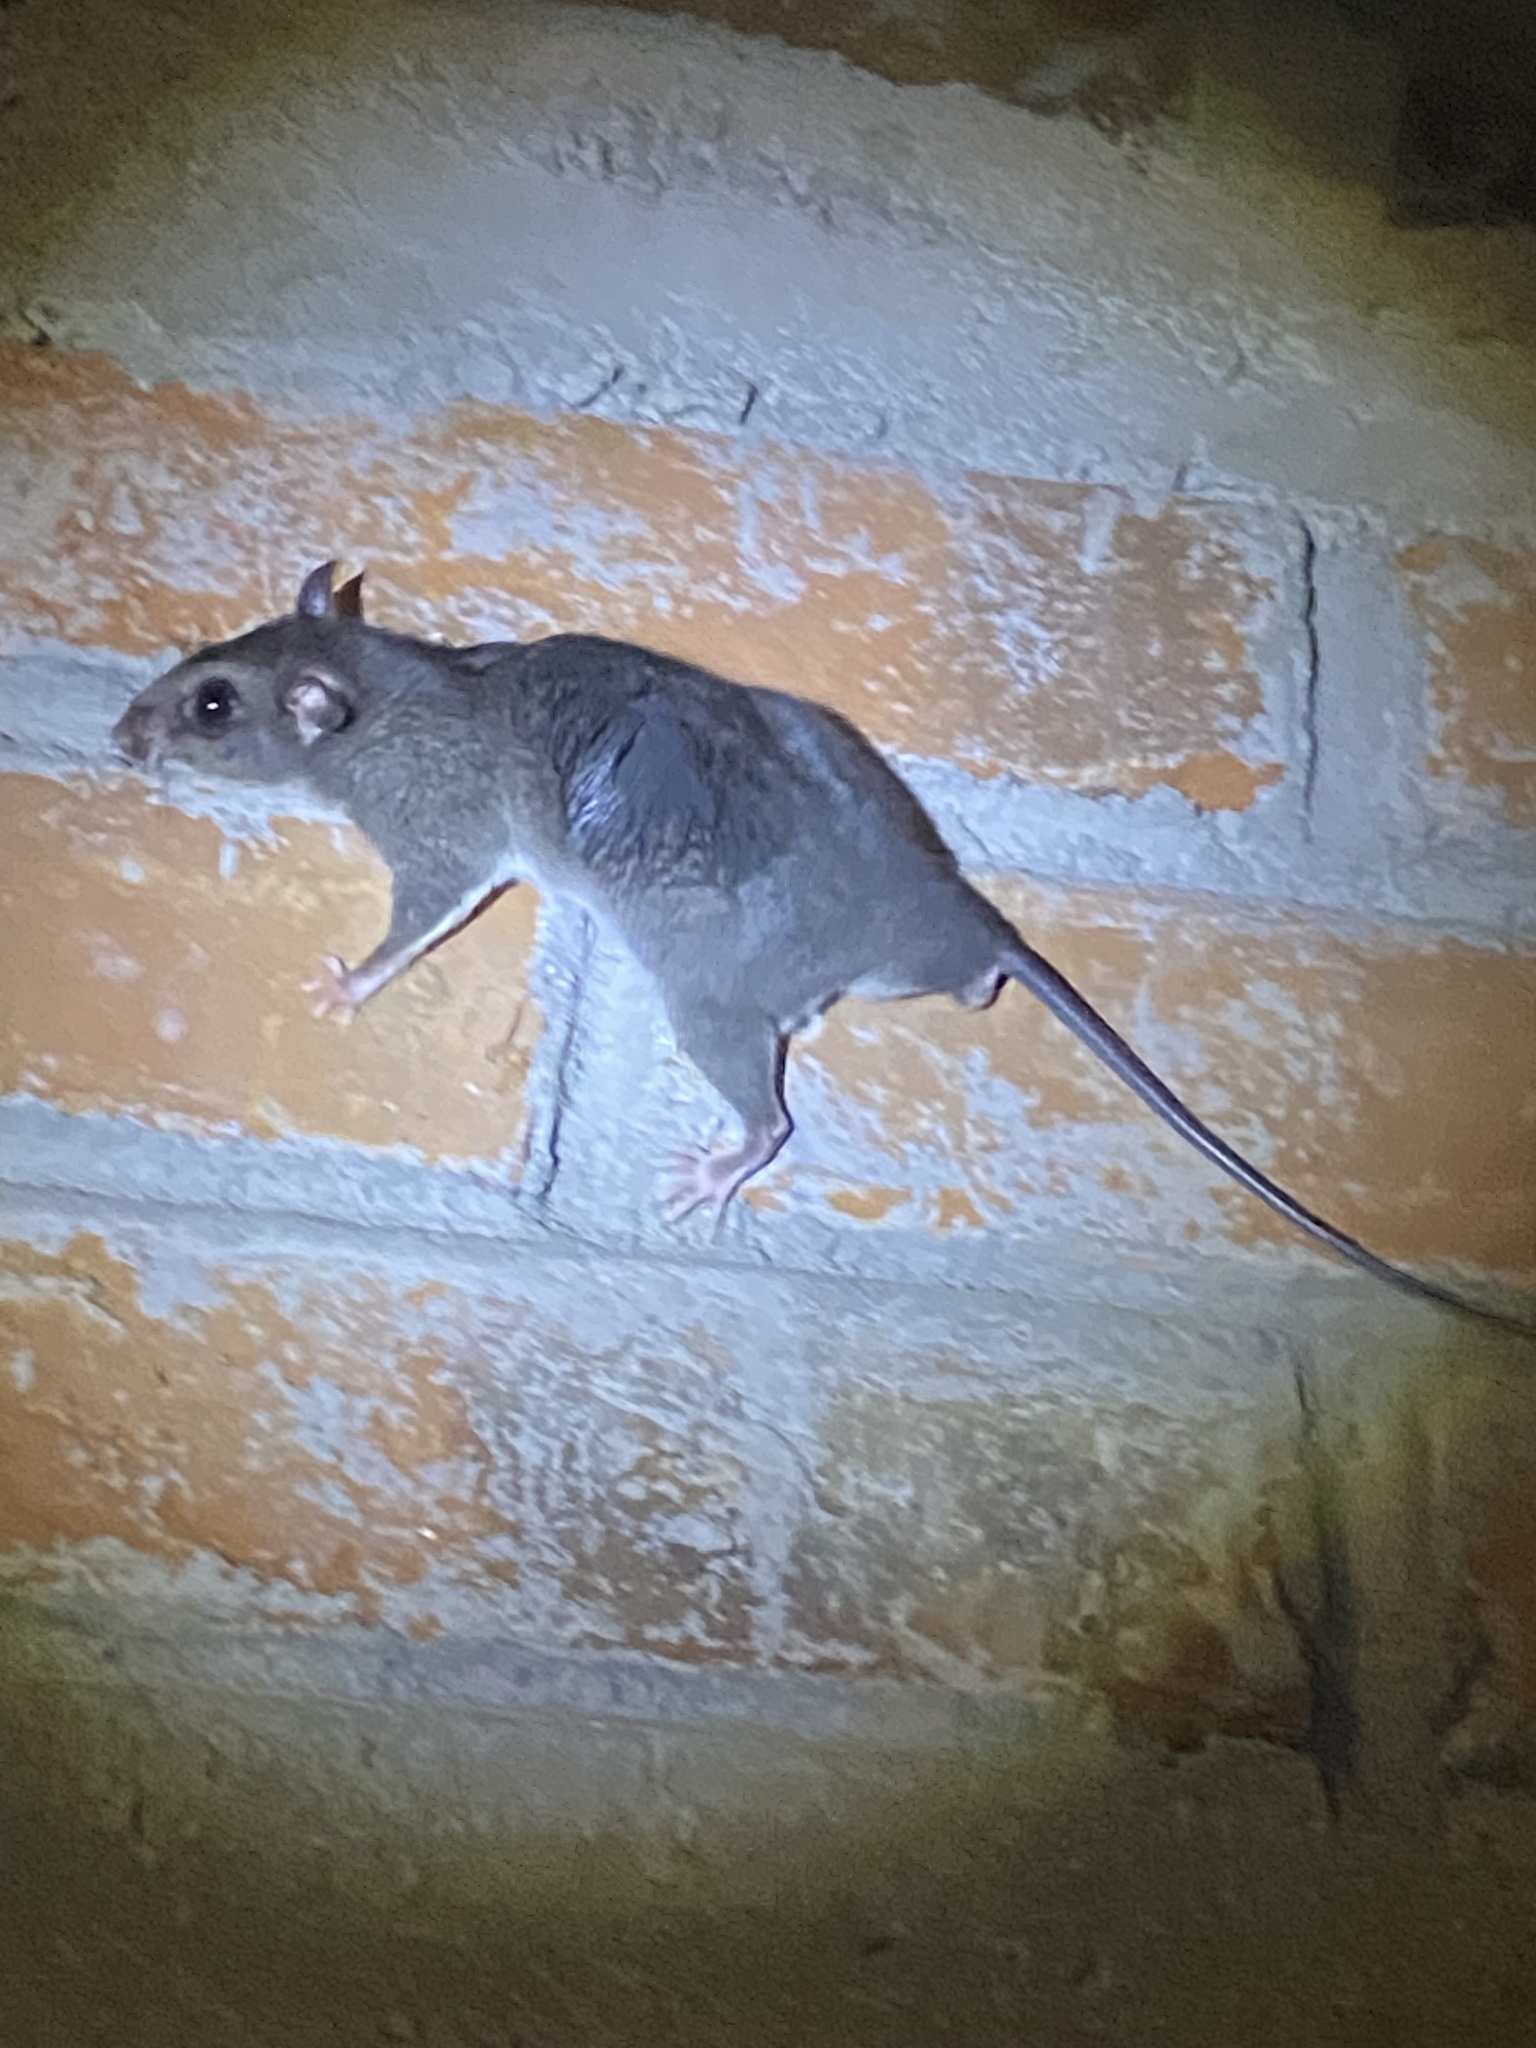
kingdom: Animalia
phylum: Chordata
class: Mammalia
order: Rodentia
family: Cricetidae
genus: Ototylomys
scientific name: Ototylomys phyllotis
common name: Big-eared climbing rat
